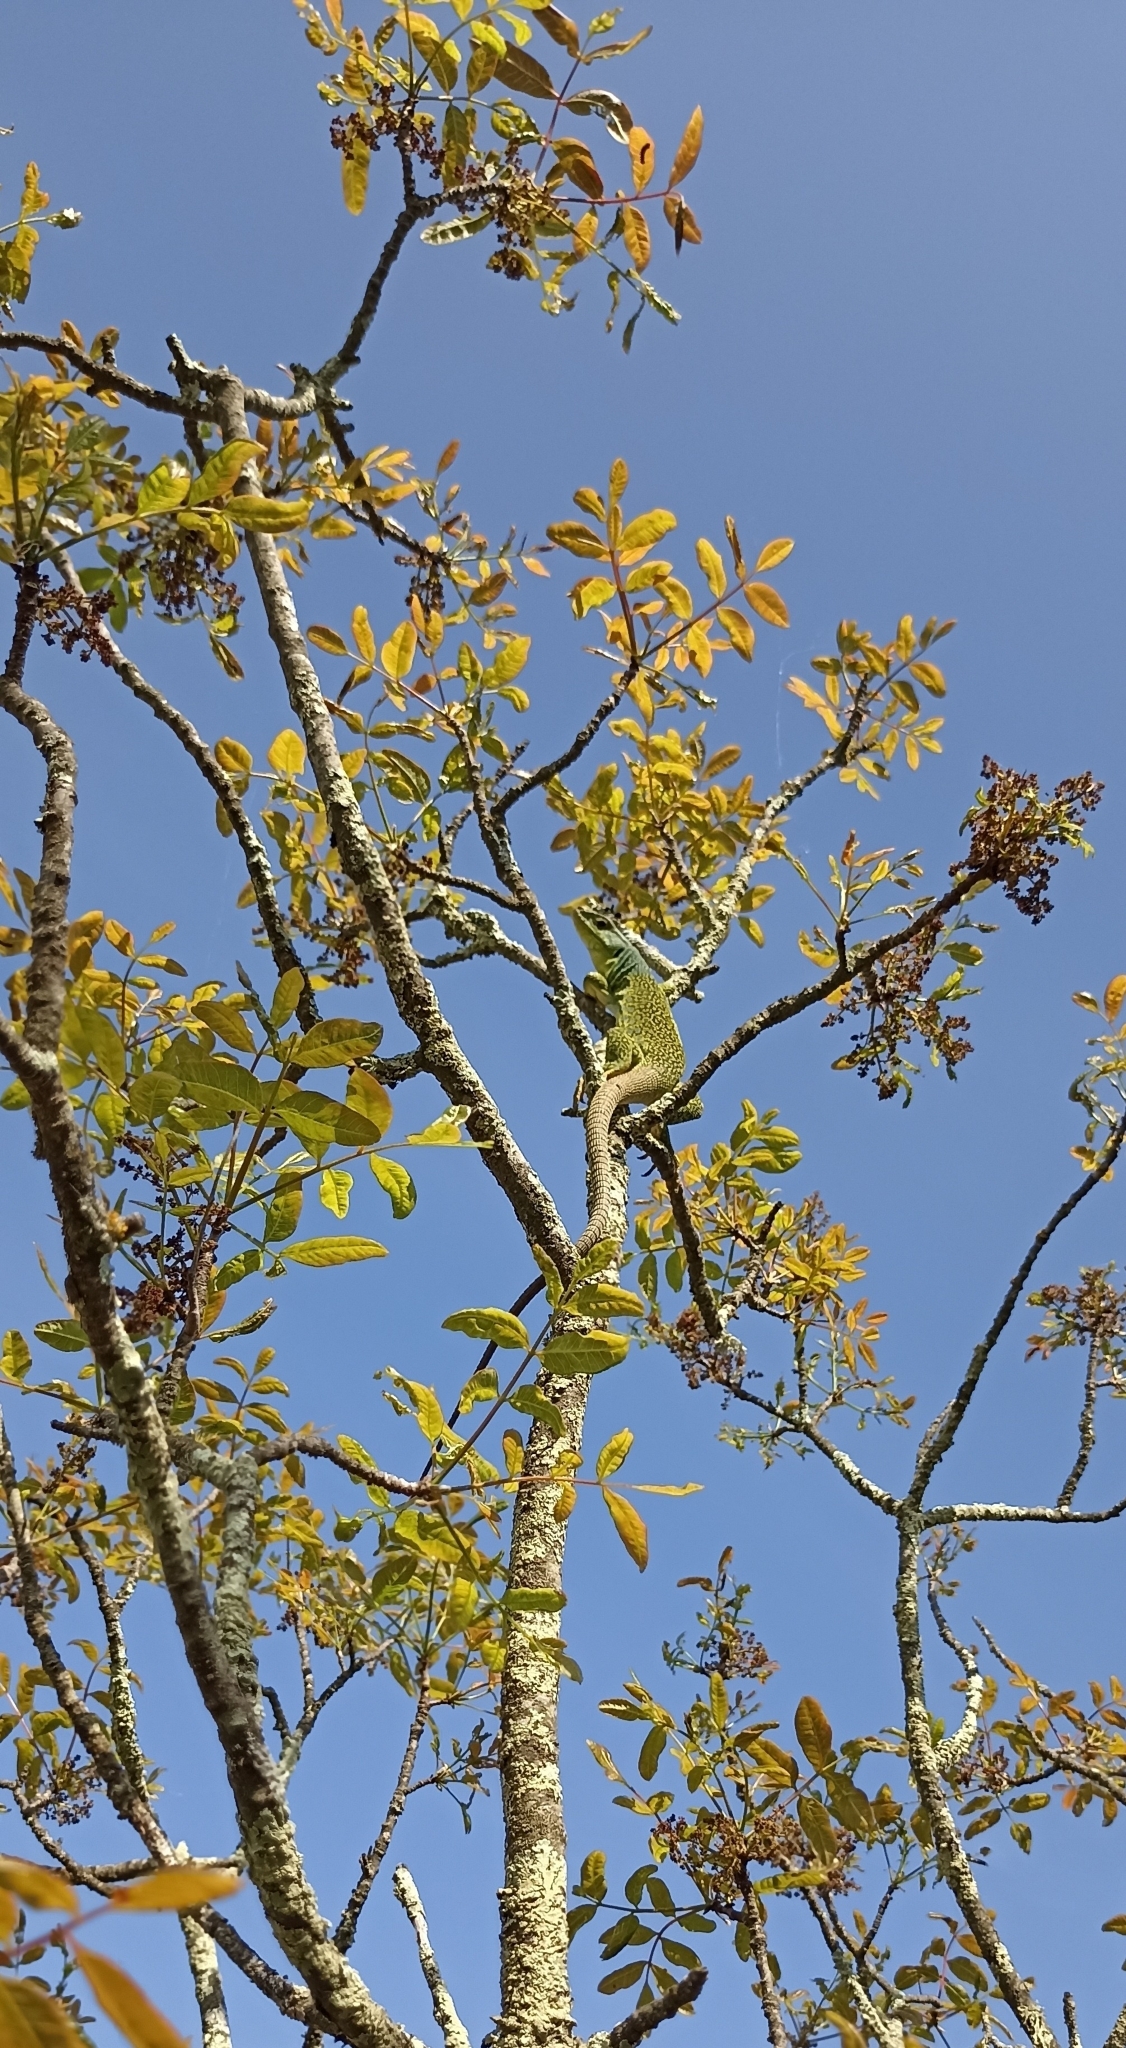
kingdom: Animalia
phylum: Chordata
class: Squamata
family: Lacertidae
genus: Timon
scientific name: Timon lepidus
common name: Ocellated lizard
